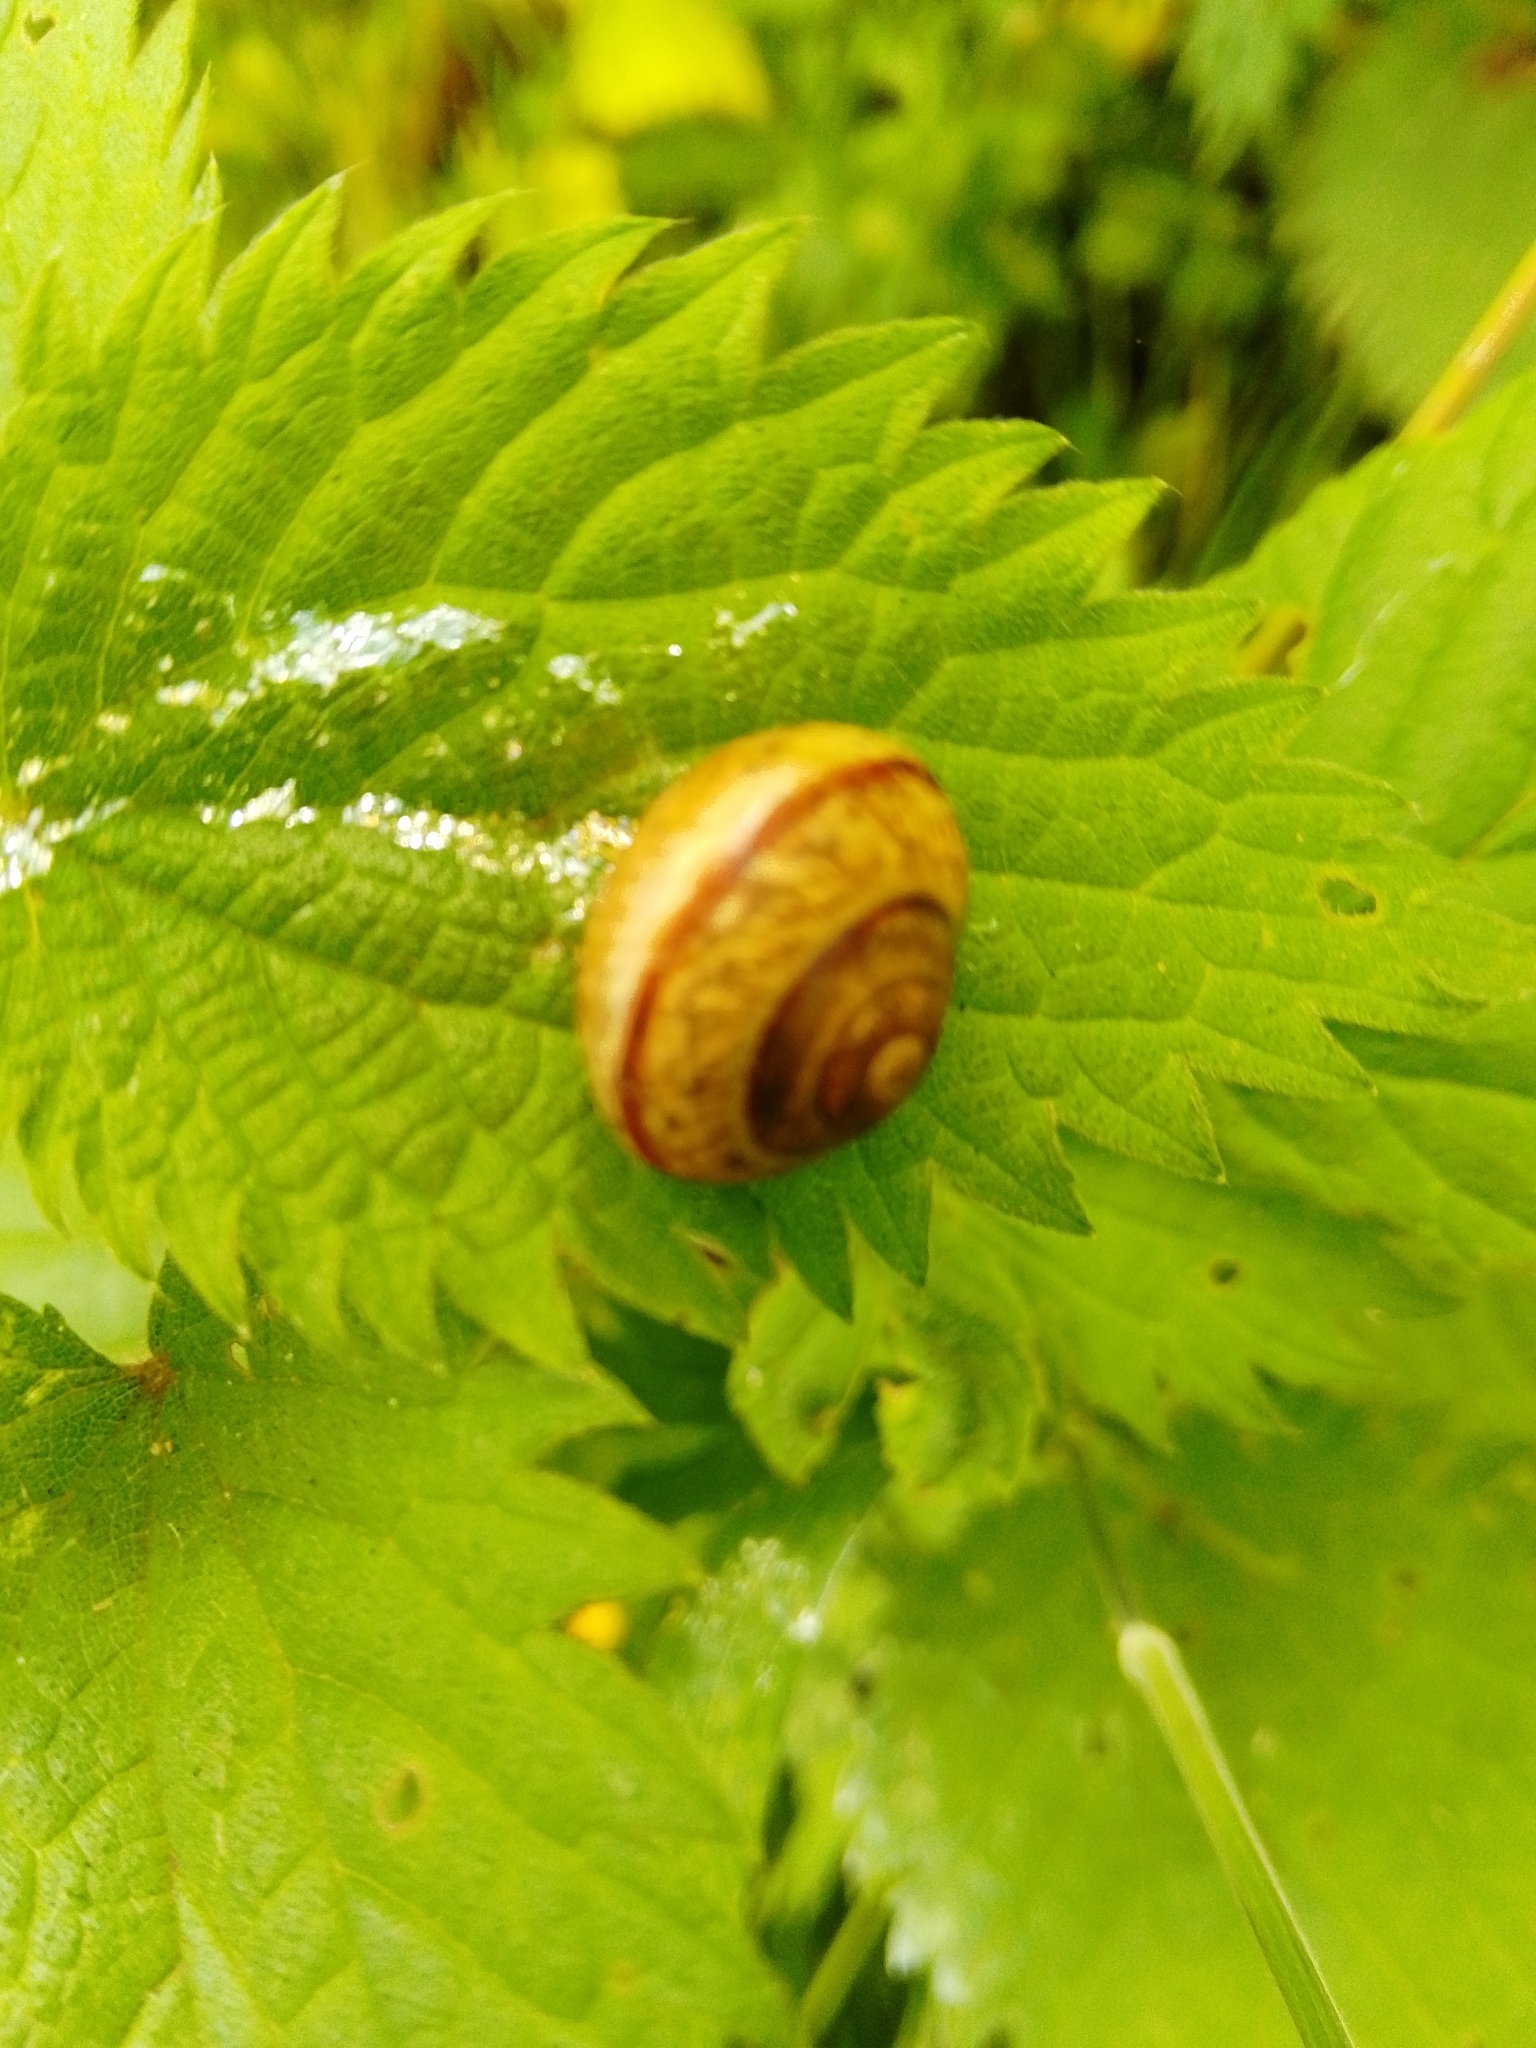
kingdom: Animalia
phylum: Mollusca
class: Gastropoda
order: Stylommatophora
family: Helicidae
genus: Arianta
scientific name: Arianta arbustorum
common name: Copse snail
